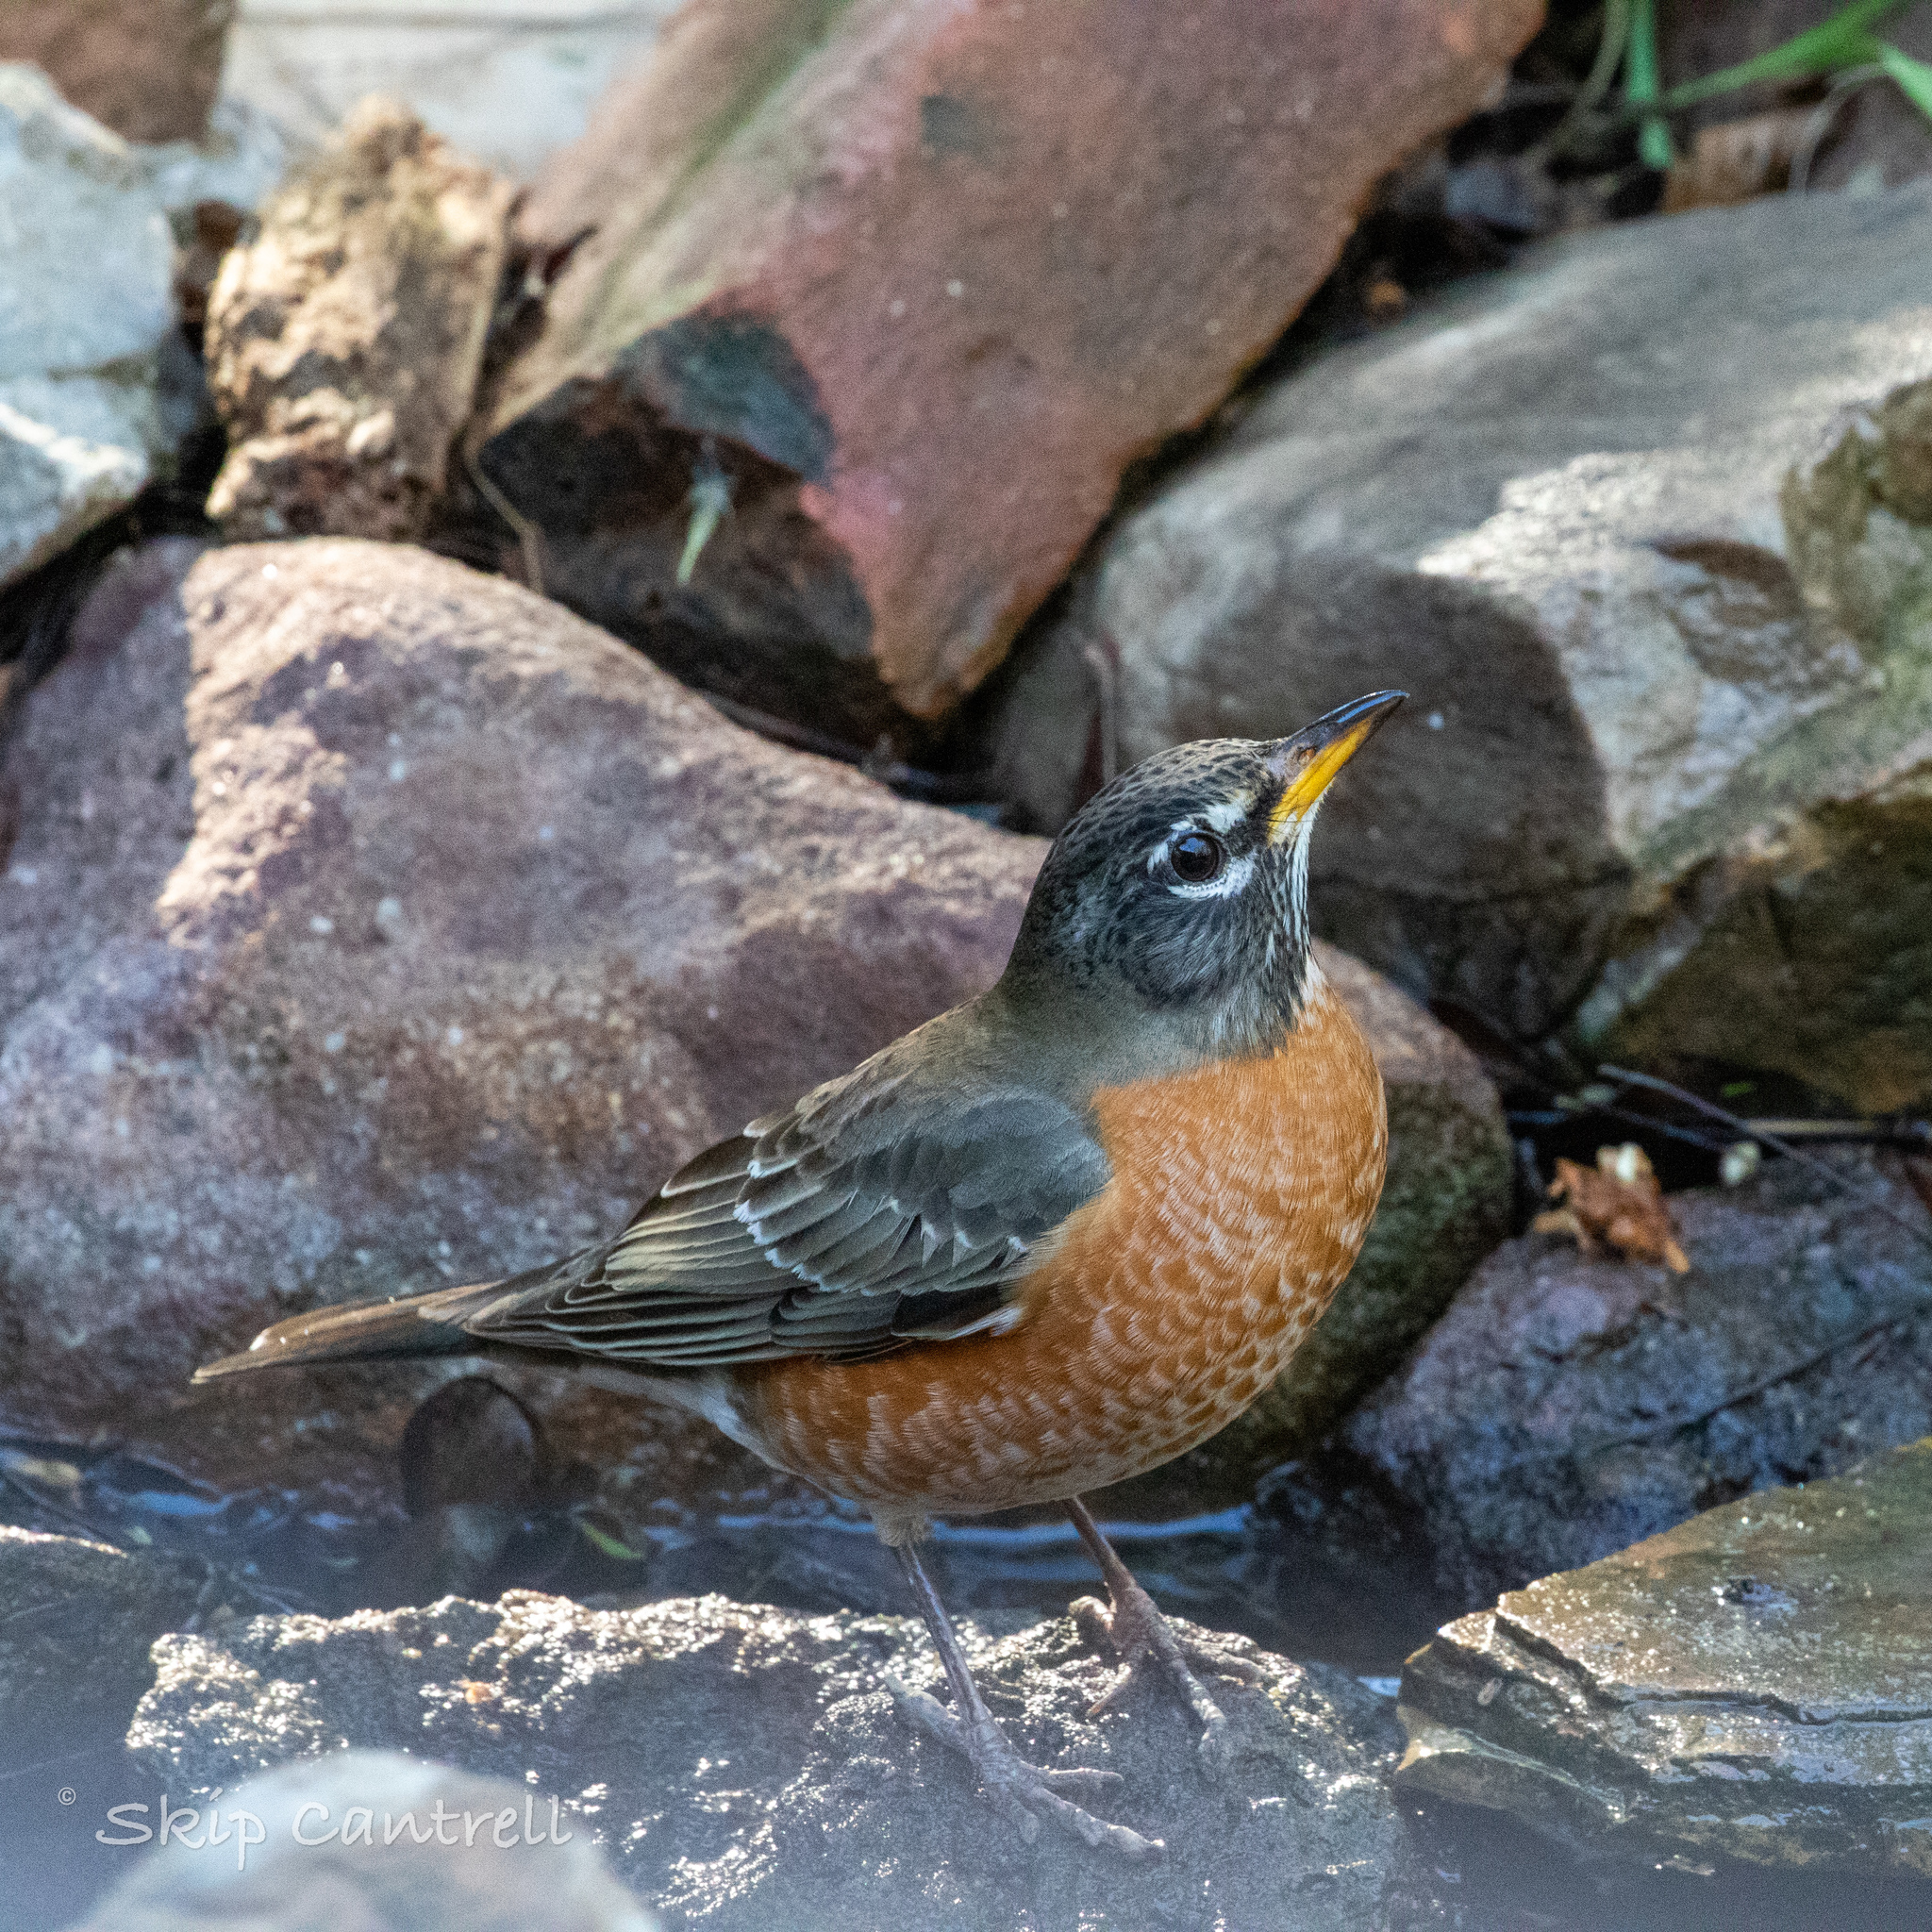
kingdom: Animalia
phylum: Chordata
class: Aves
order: Passeriformes
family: Turdidae
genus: Turdus
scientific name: Turdus migratorius
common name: American robin
